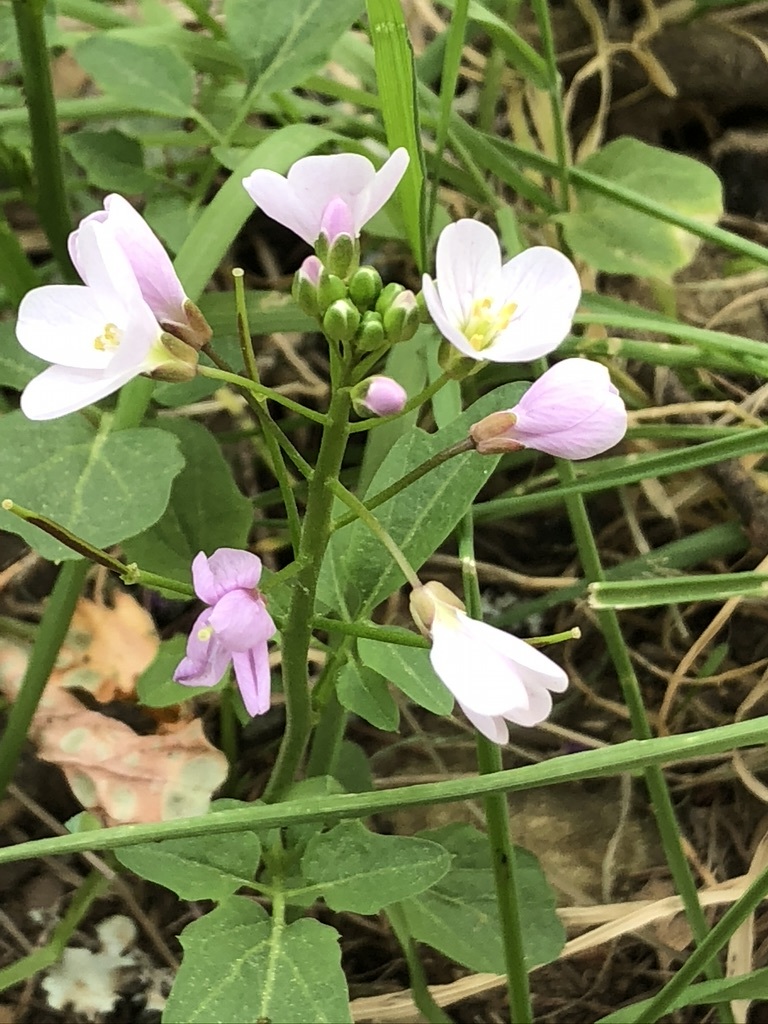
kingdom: Plantae
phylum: Tracheophyta
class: Magnoliopsida
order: Brassicales
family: Brassicaceae
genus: Cardamine
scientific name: Cardamine californica
